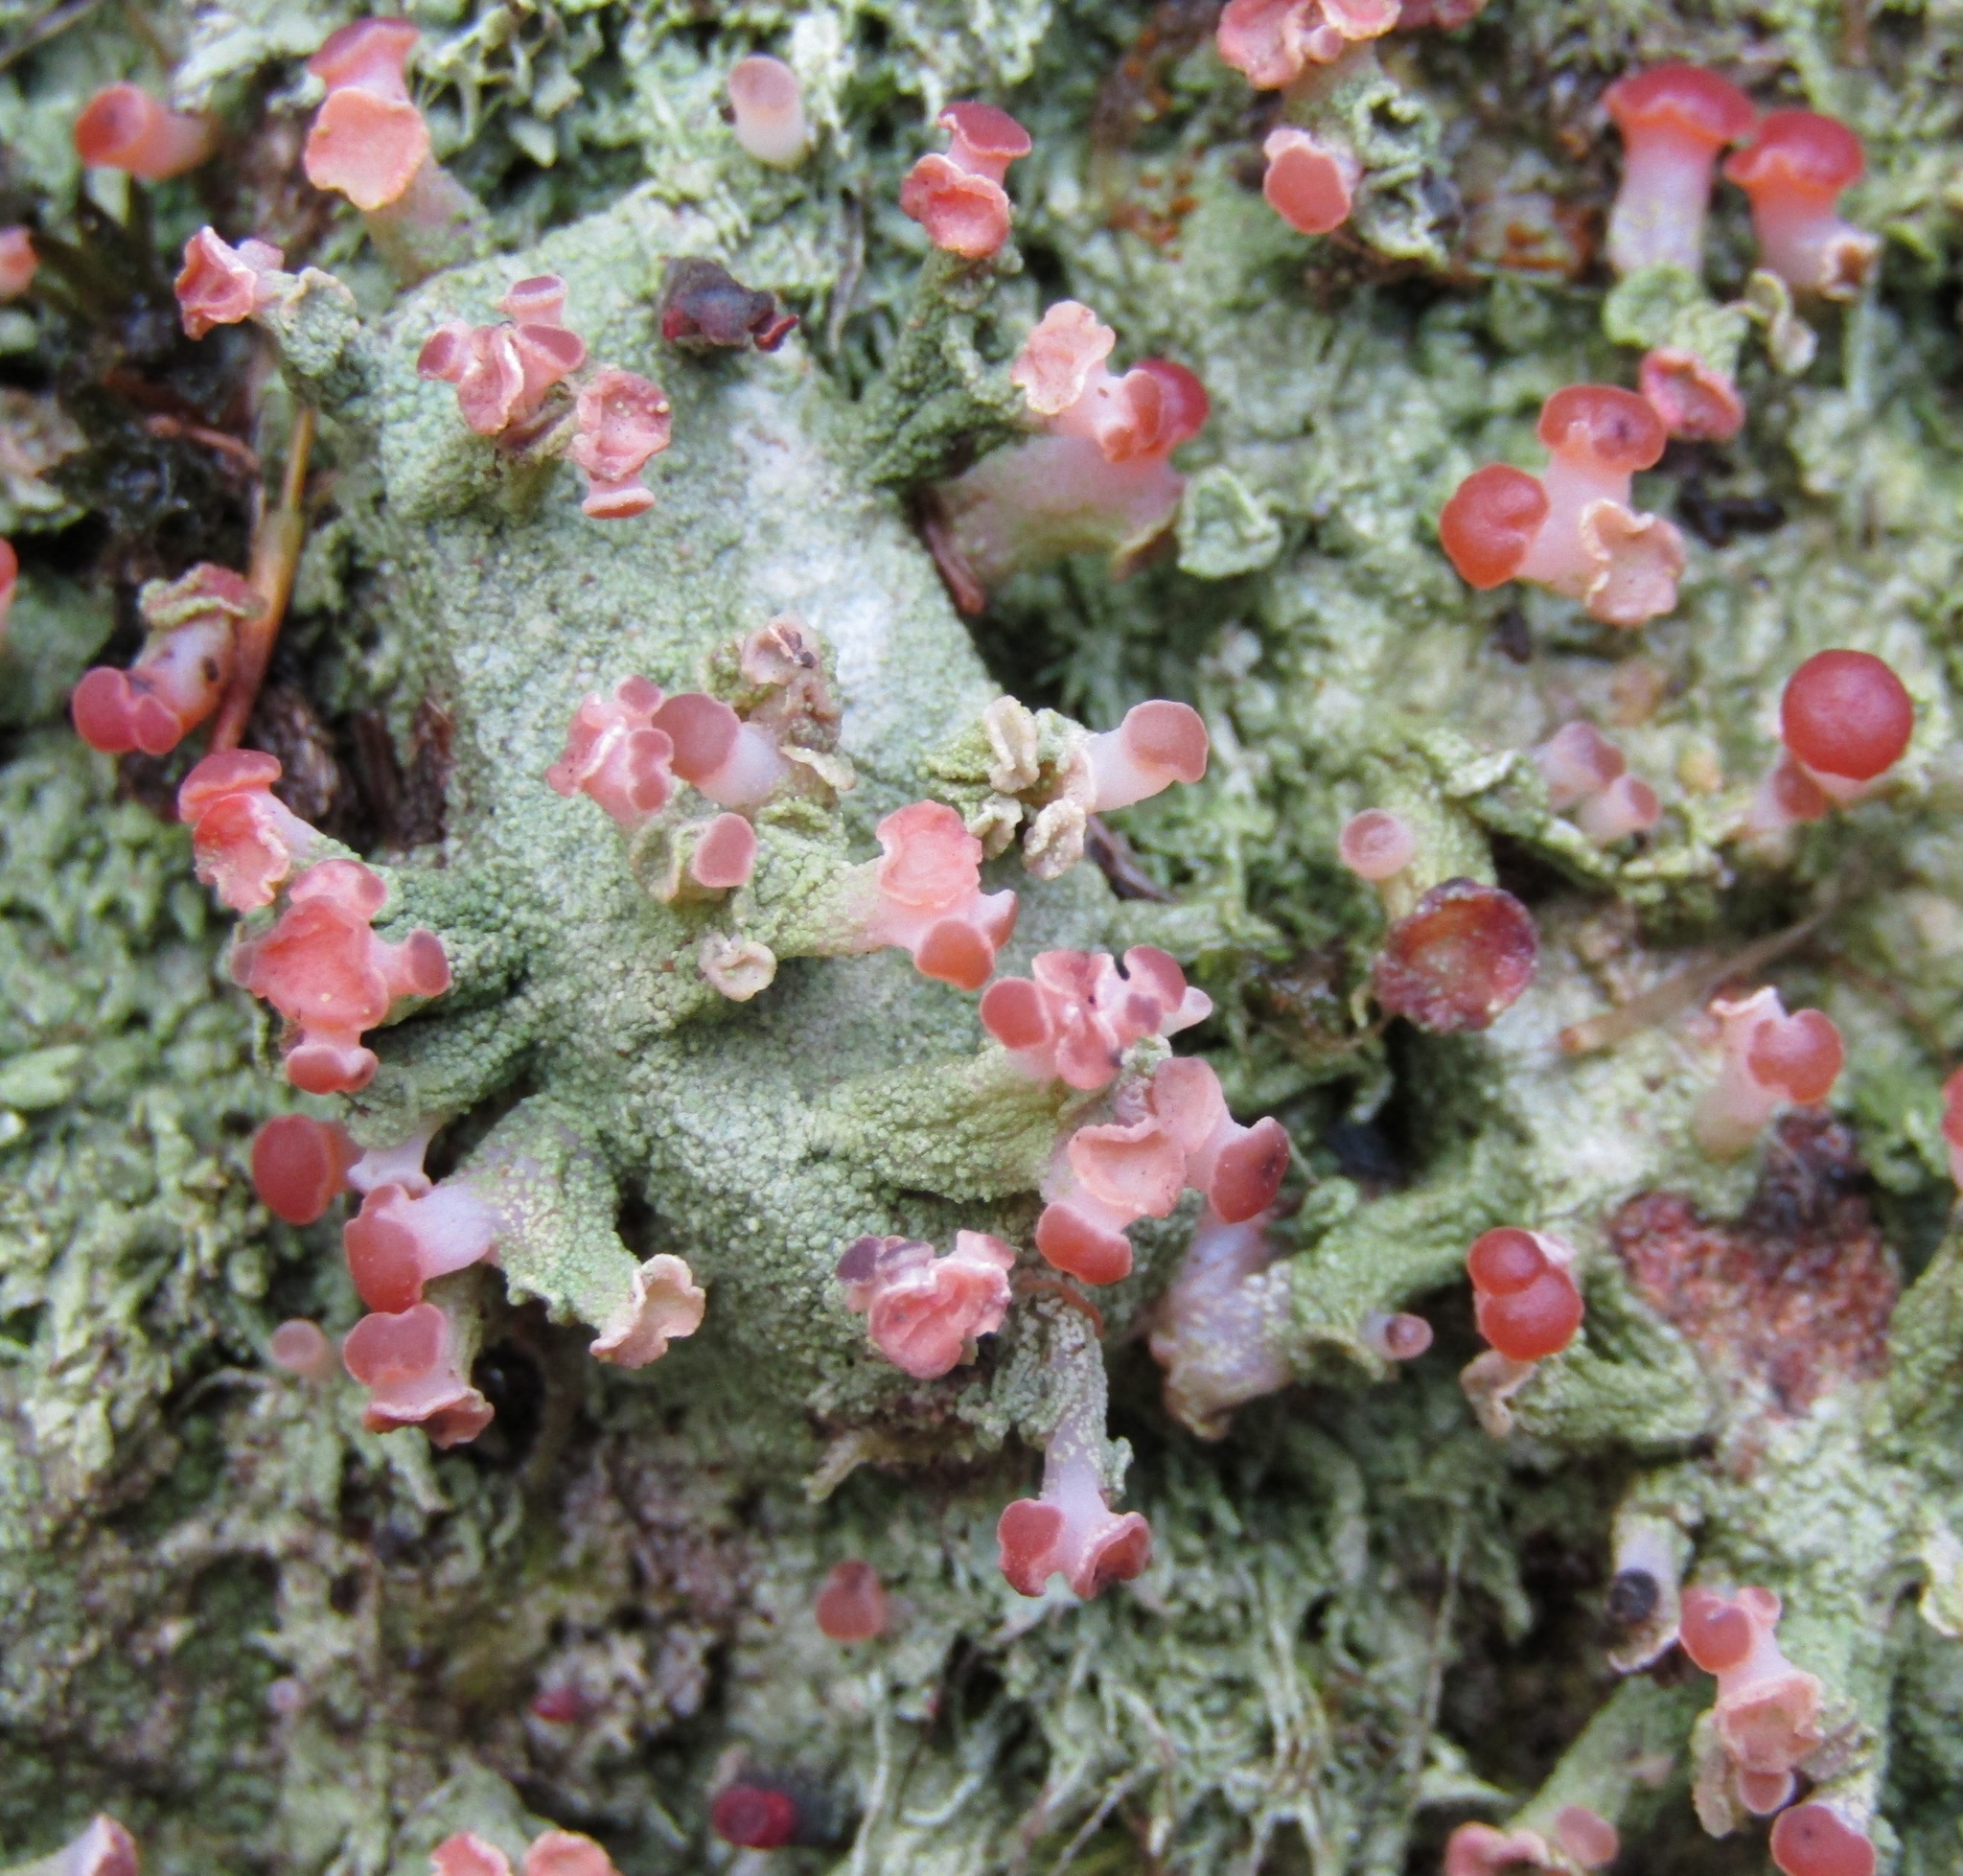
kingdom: Fungi
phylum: Ascomycota
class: Lecanoromycetes
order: Baeomycetales
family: Baeomycetaceae
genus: Baeomyces
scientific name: Baeomyces heteromorphus
